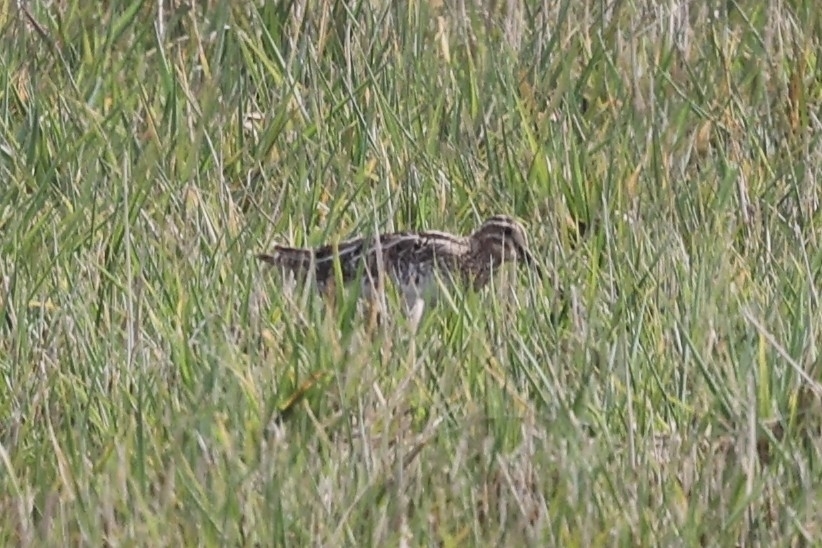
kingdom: Animalia
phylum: Chordata
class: Aves
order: Charadriiformes
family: Scolopacidae
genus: Gallinago
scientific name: Gallinago gallinago
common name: Common snipe
